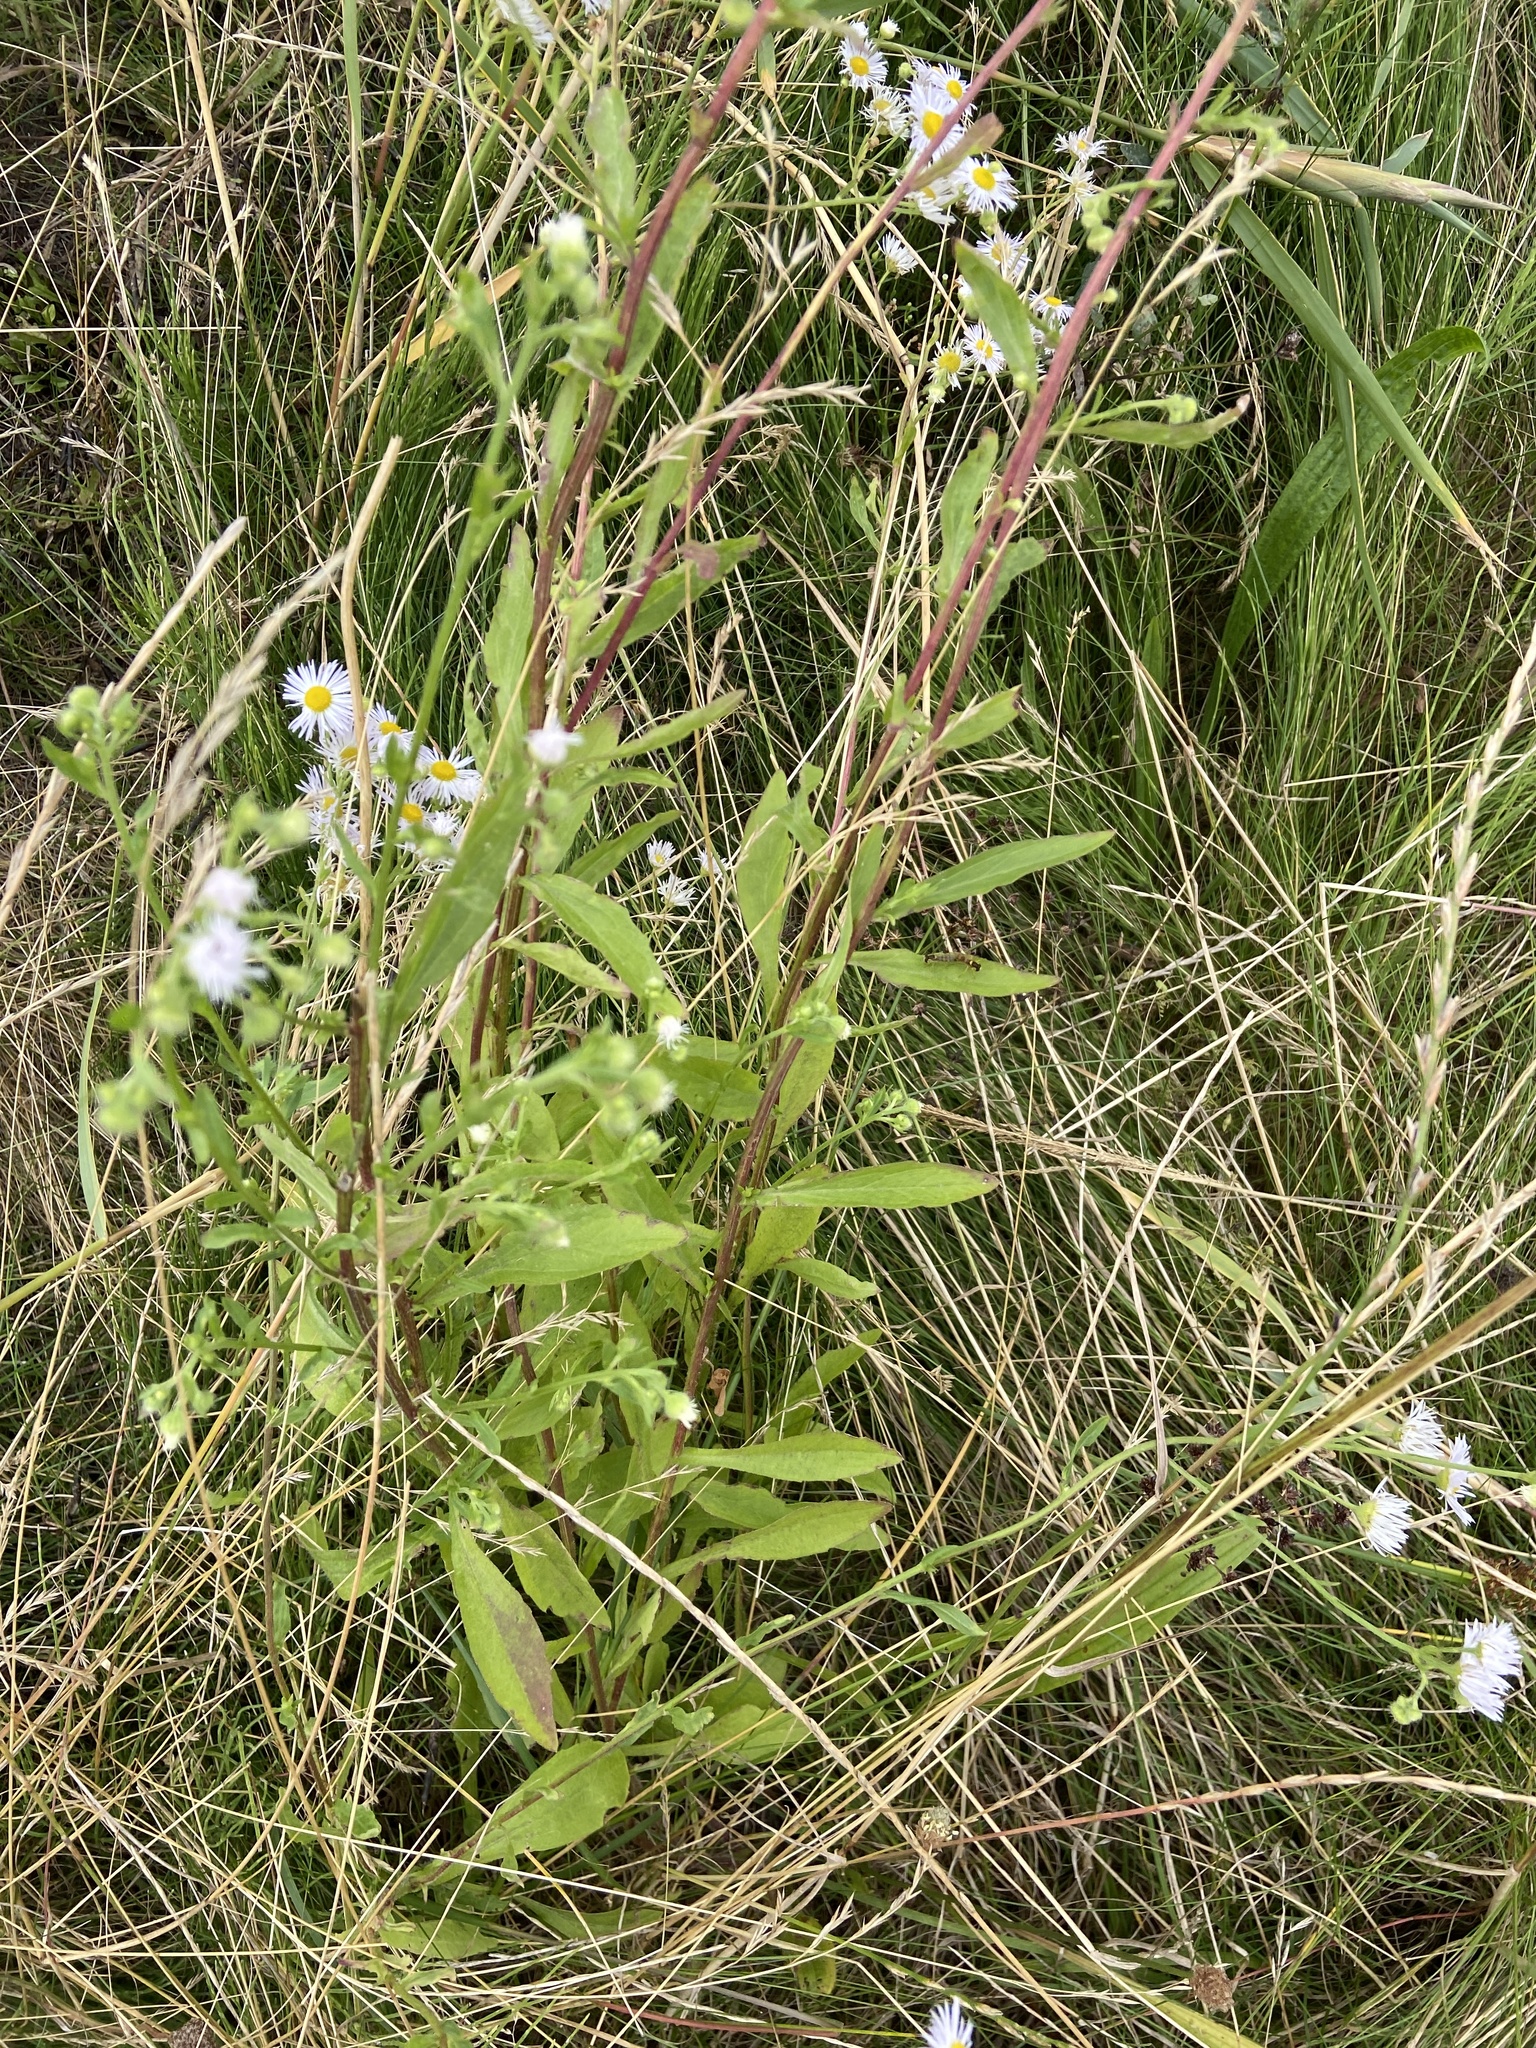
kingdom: Plantae
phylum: Tracheophyta
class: Magnoliopsida
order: Asterales
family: Asteraceae
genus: Erigeron
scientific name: Erigeron annuus
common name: Tall fleabane
